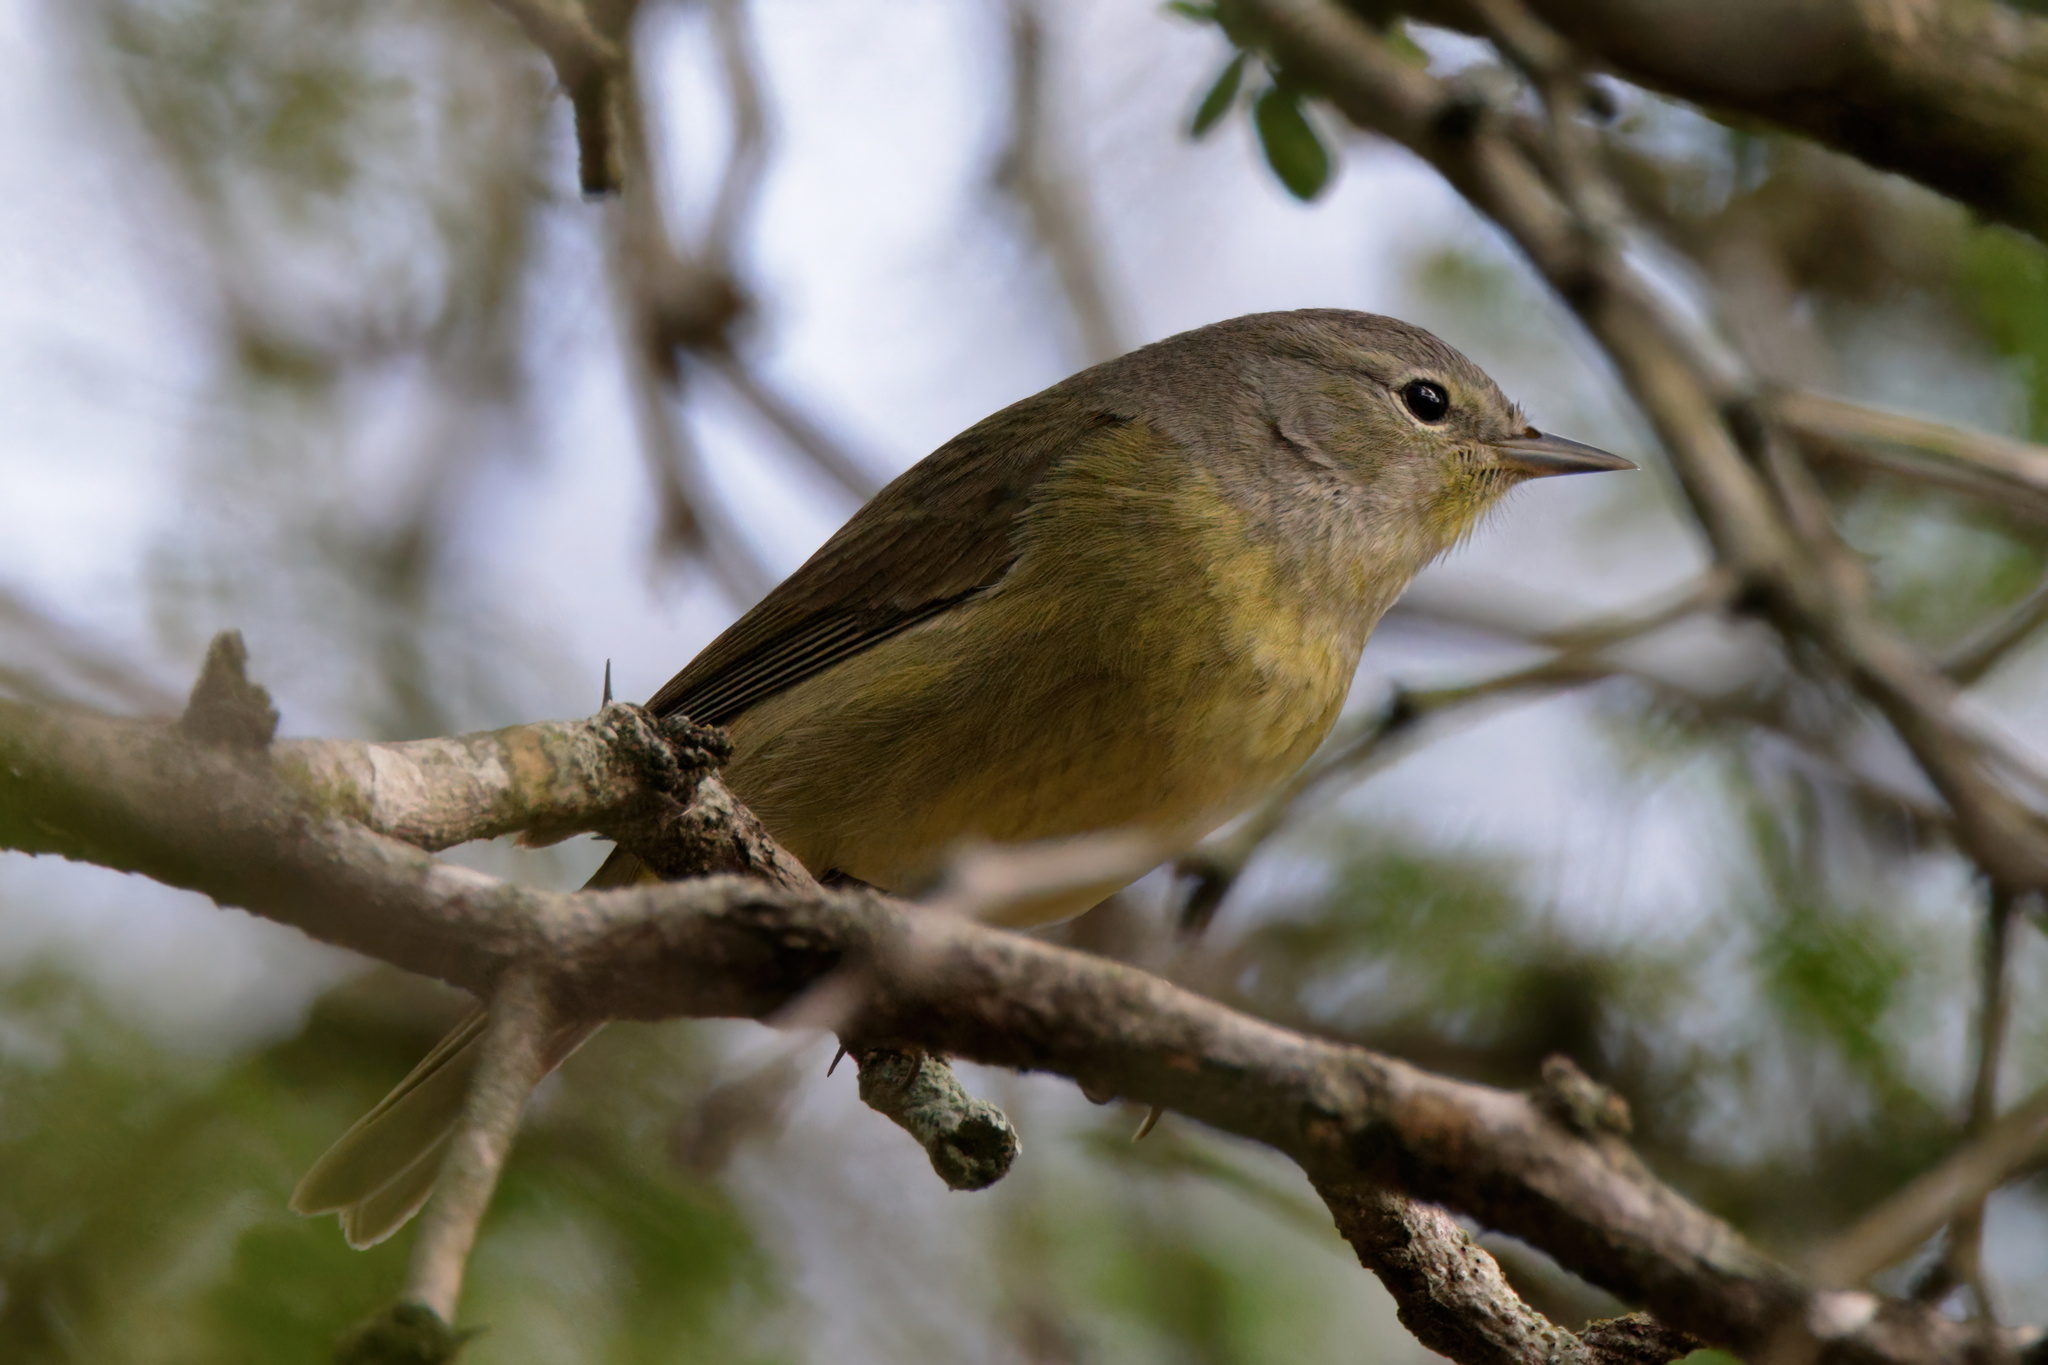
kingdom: Animalia
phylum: Chordata
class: Aves
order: Passeriformes
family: Parulidae
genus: Leiothlypis
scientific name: Leiothlypis celata
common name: Orange-crowned warbler
